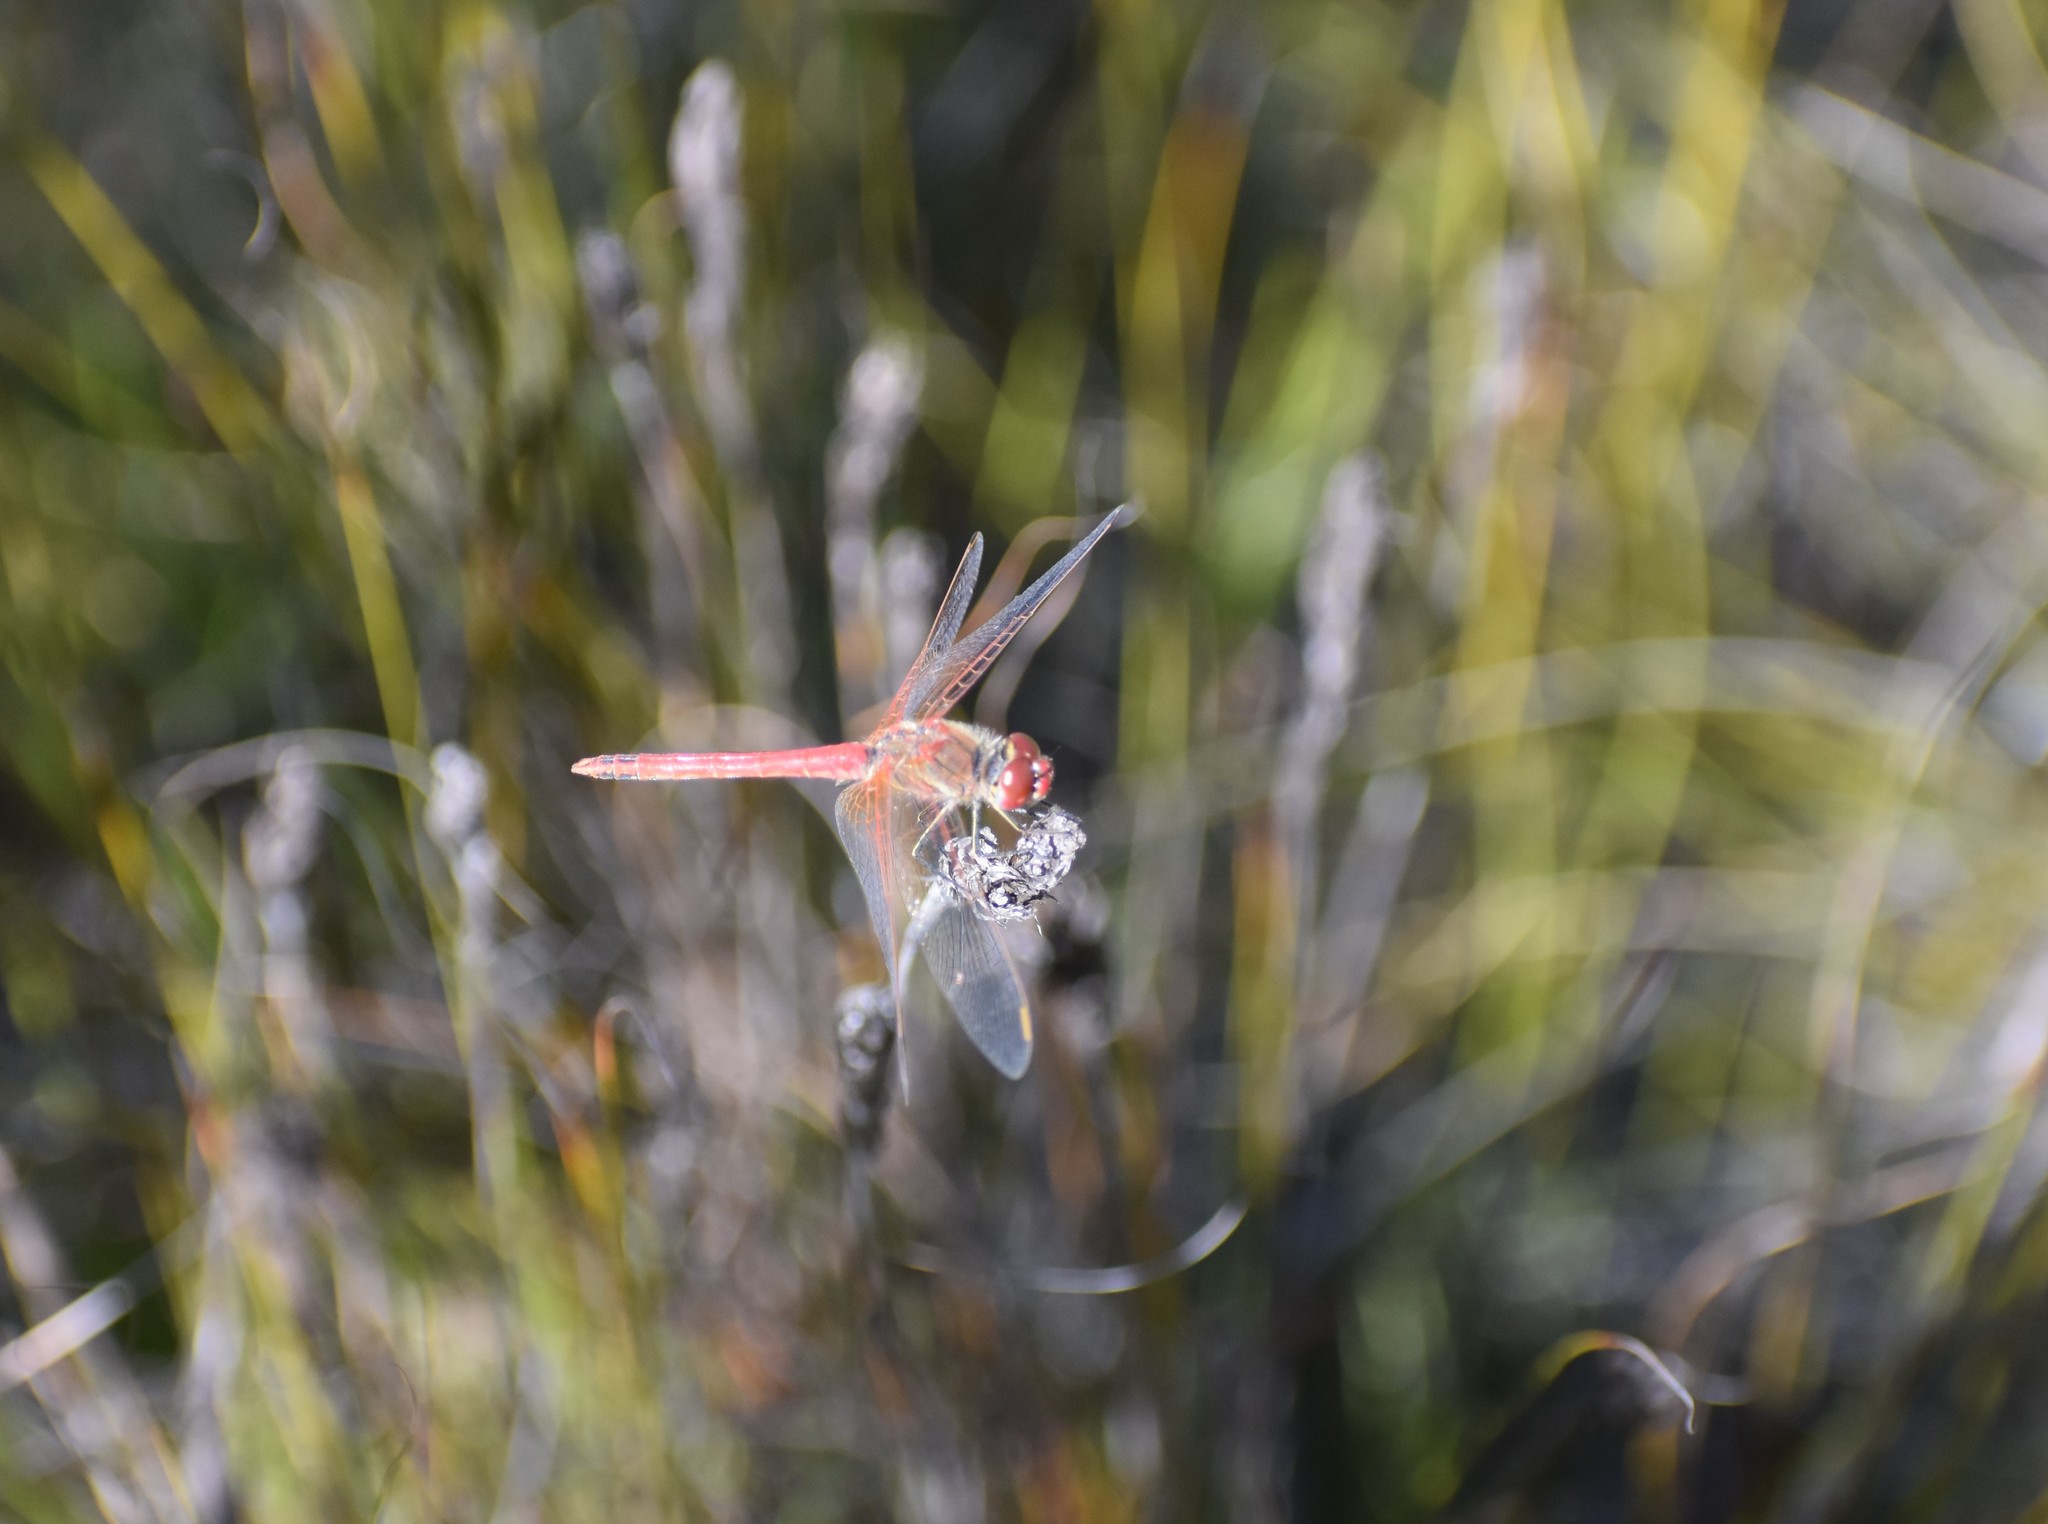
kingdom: Animalia
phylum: Arthropoda
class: Insecta
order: Odonata
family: Libellulidae
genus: Sympetrum
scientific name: Sympetrum fonscolombii
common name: Red-veined darter
